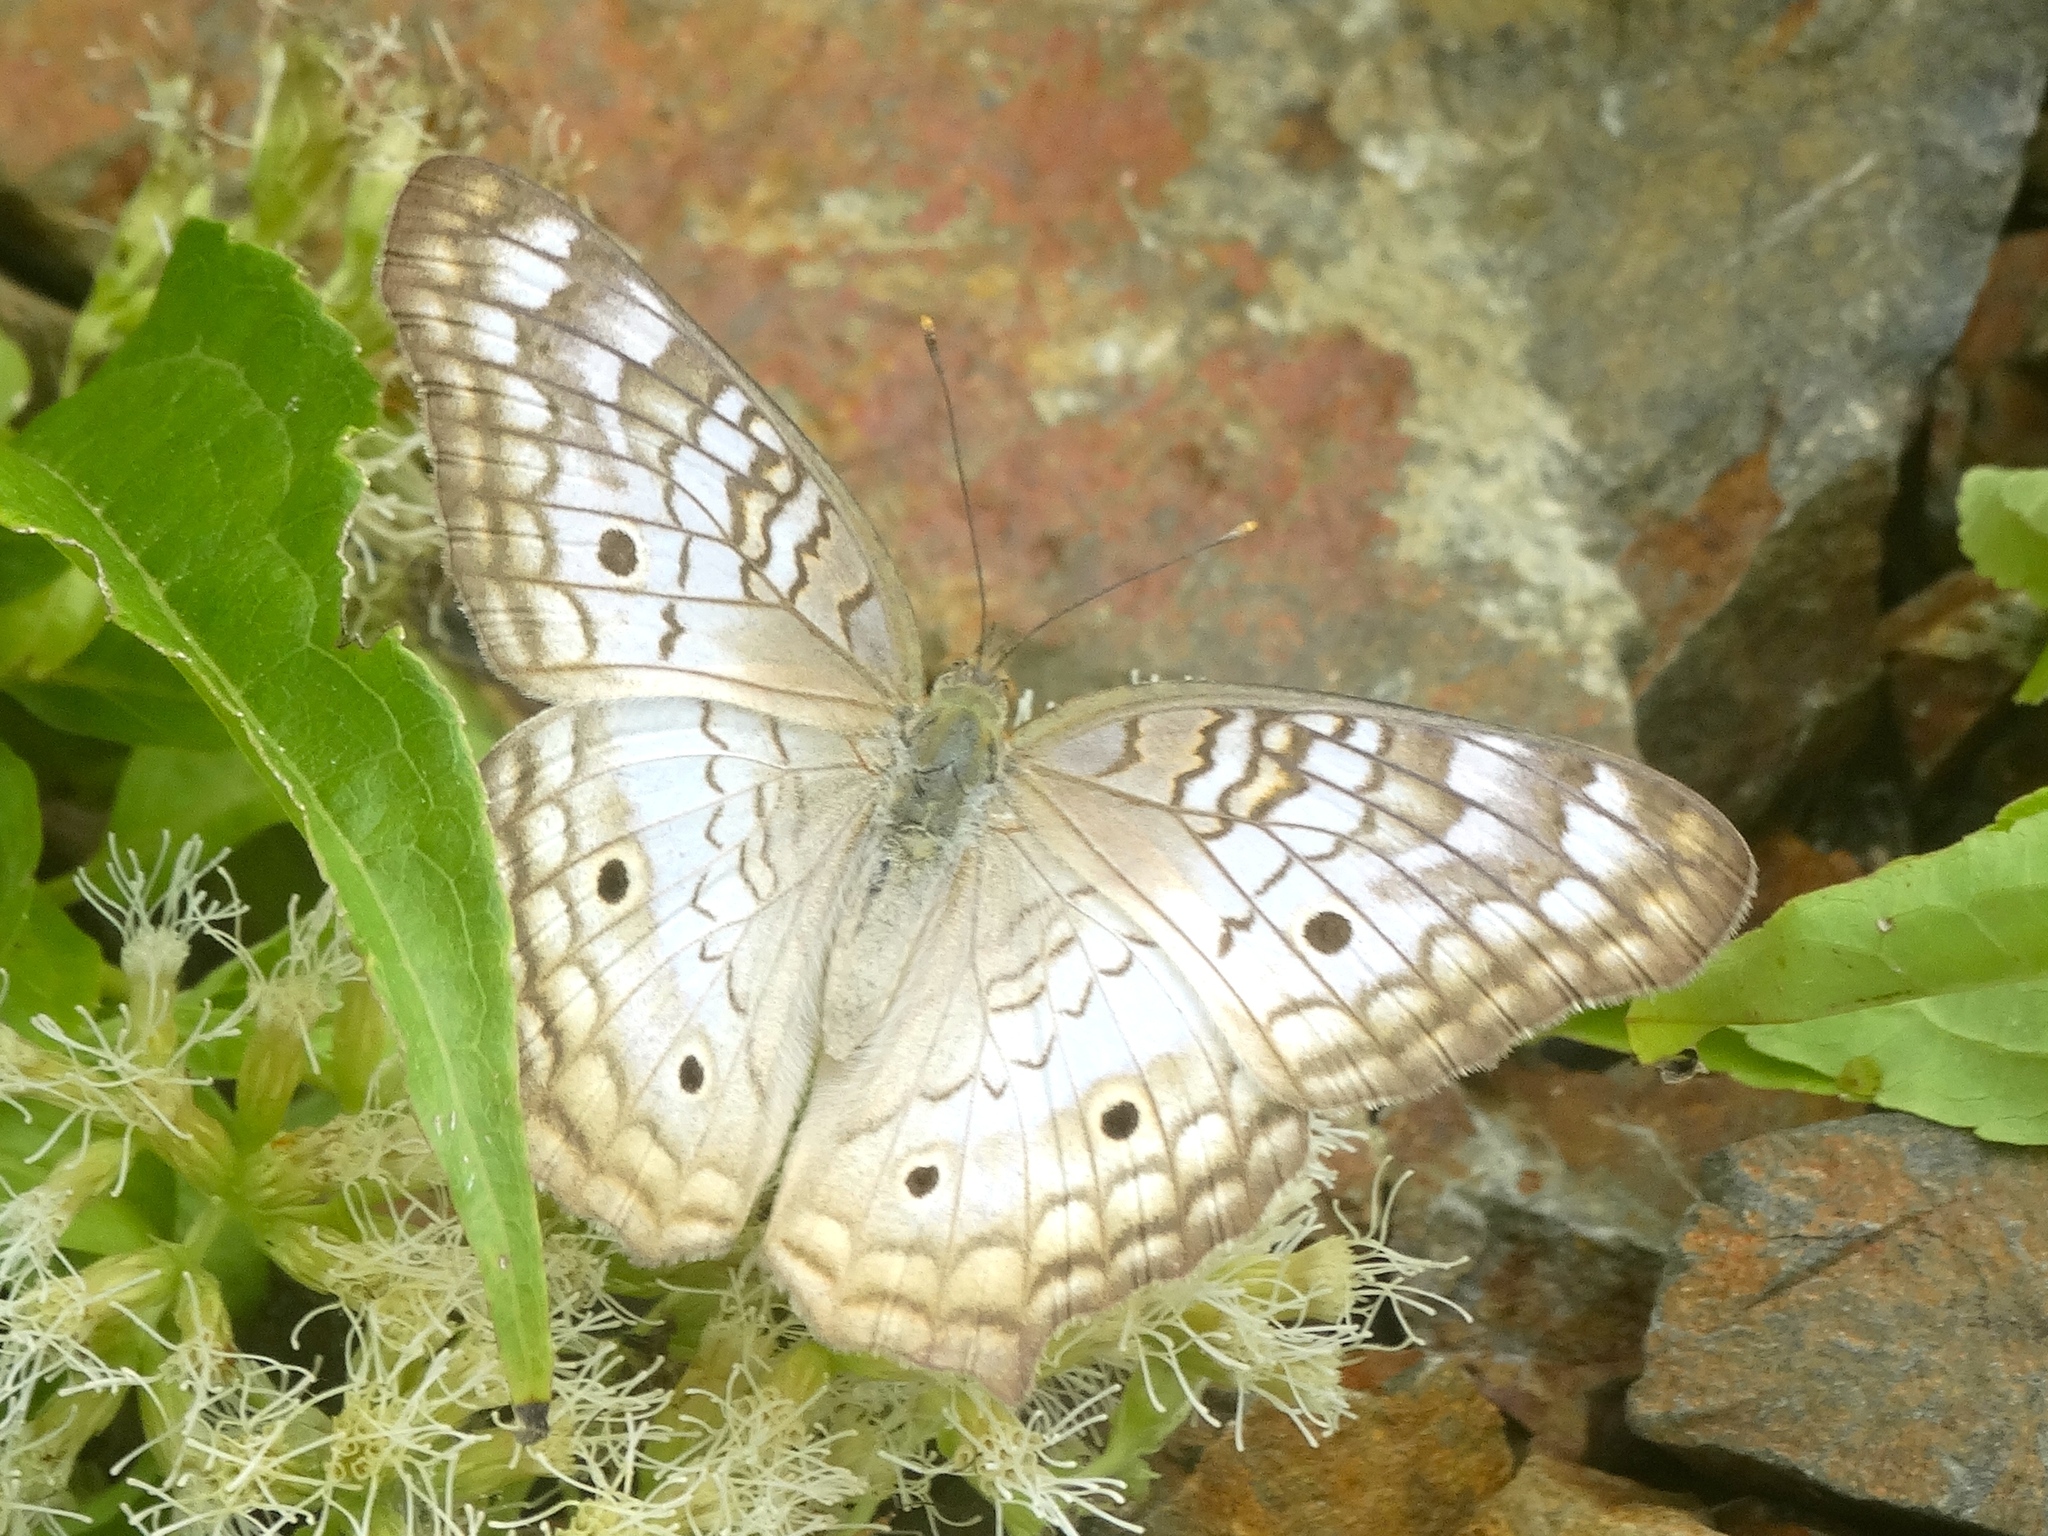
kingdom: Animalia
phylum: Arthropoda
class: Insecta
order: Lepidoptera
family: Nymphalidae
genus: Anartia
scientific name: Anartia jatrophae
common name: White peacock
